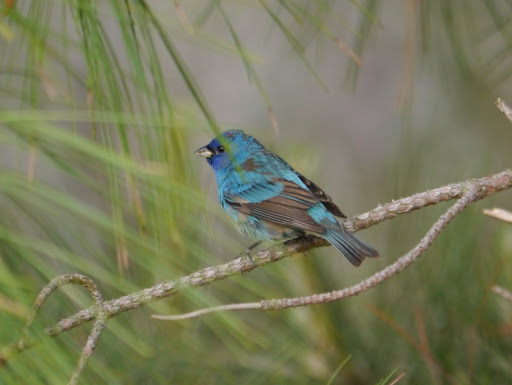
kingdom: Animalia
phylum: Chordata
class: Aves
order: Passeriformes
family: Cardinalidae
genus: Passerina
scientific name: Passerina cyanea
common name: Indigo bunting
